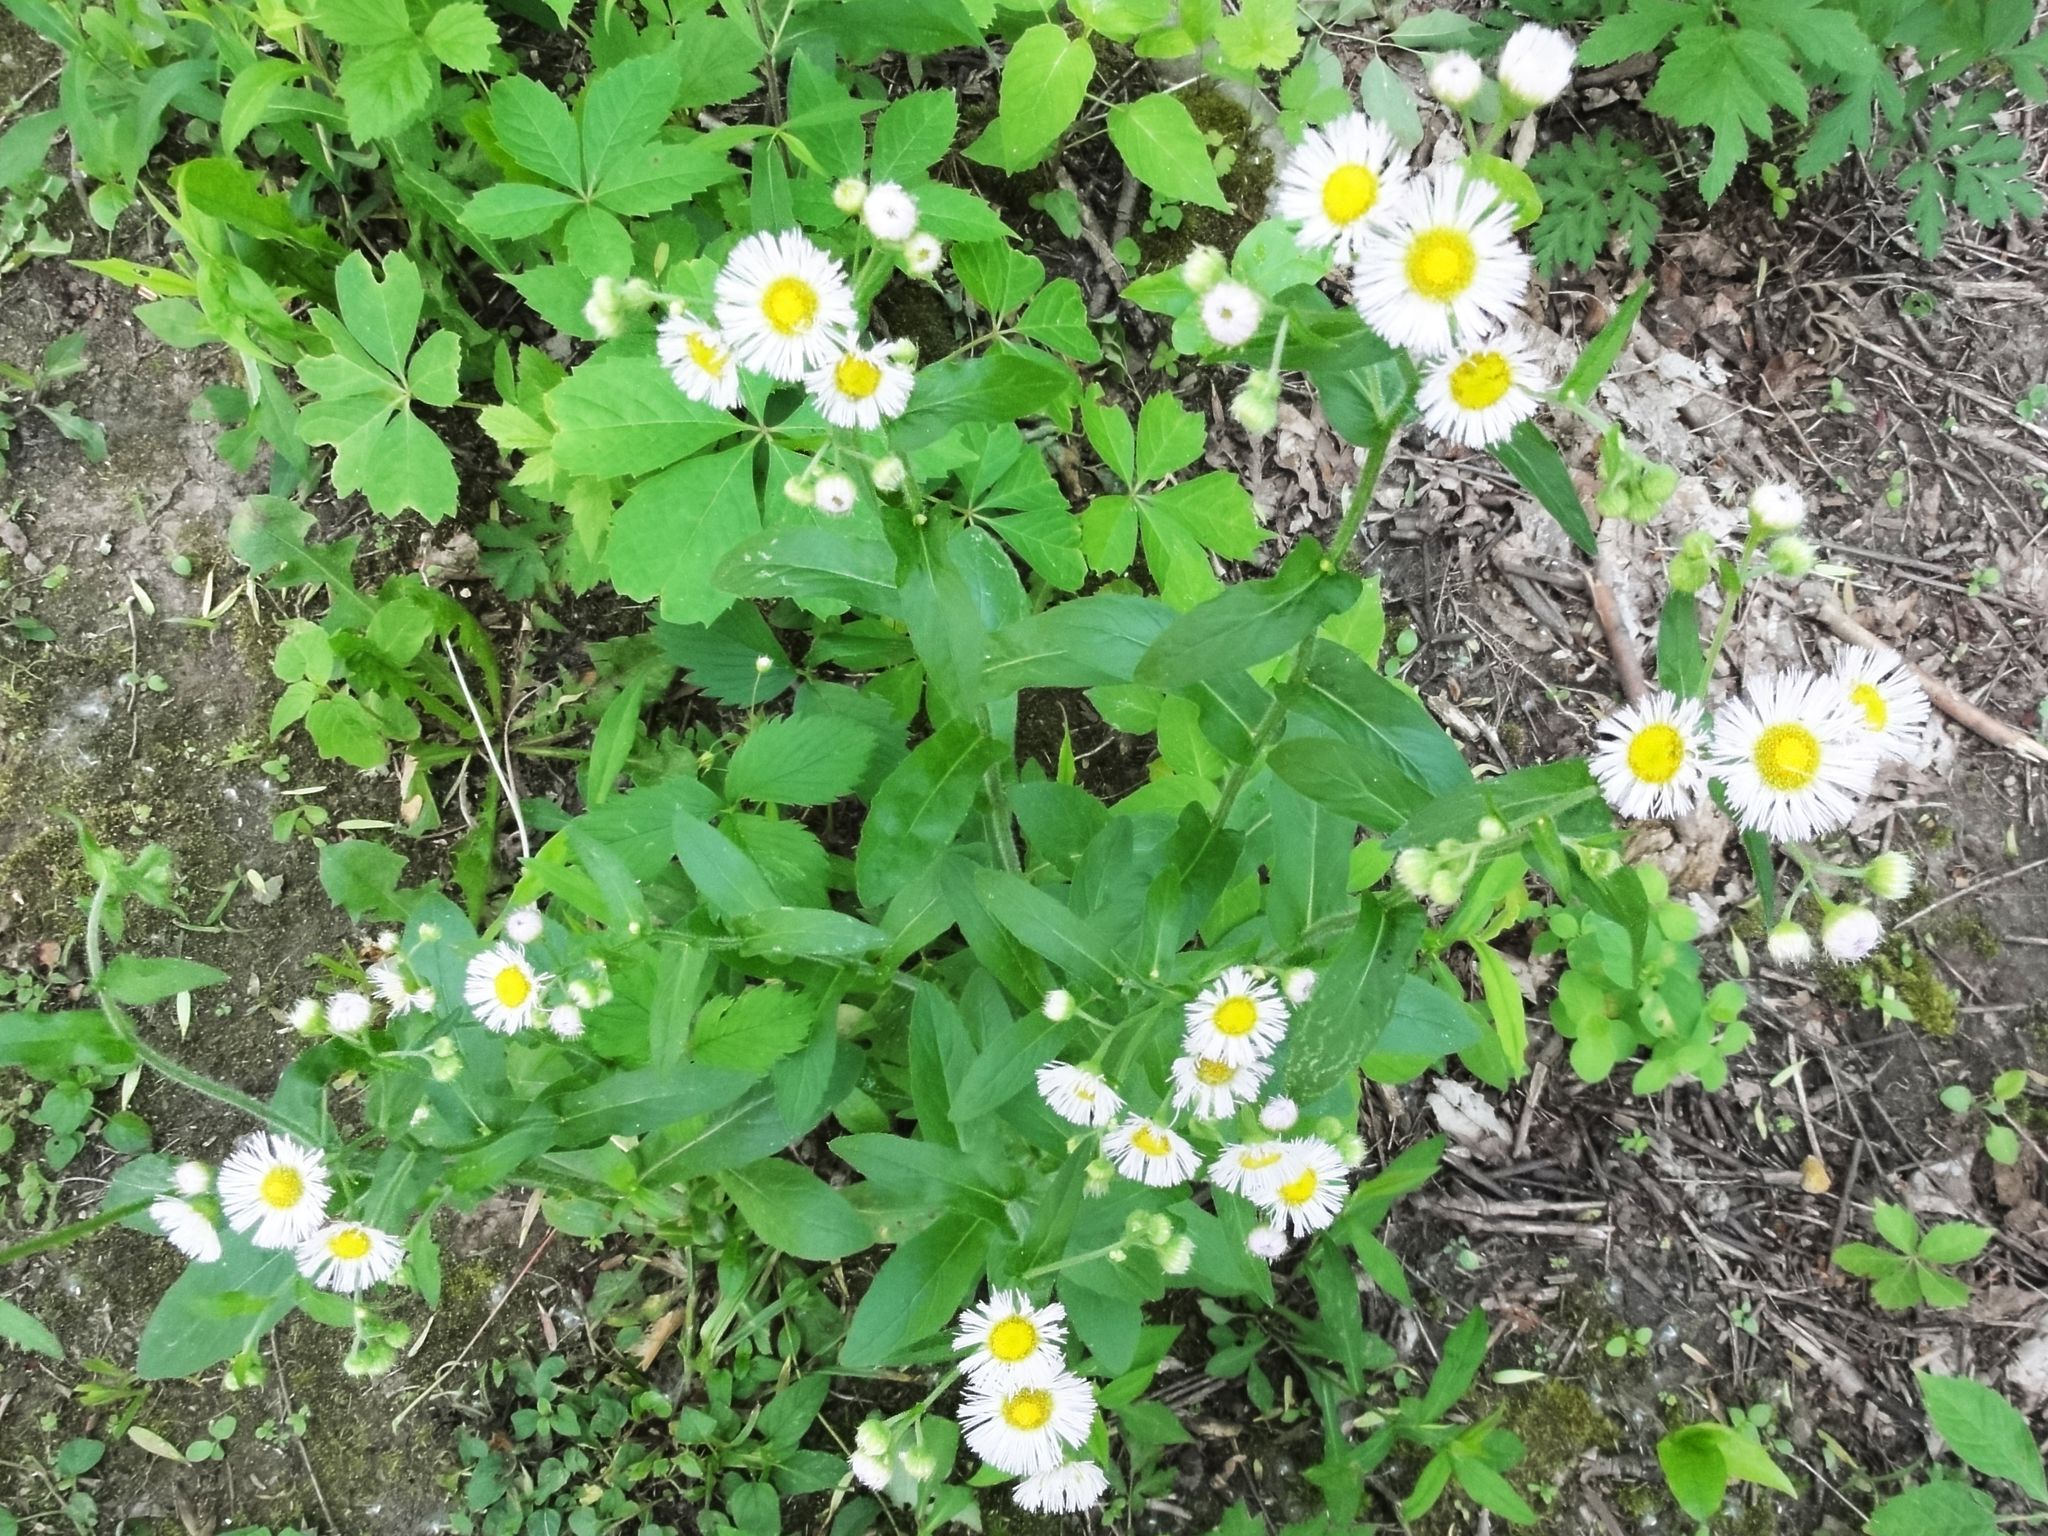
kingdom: Plantae
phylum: Tracheophyta
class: Magnoliopsida
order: Asterales
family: Asteraceae
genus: Erigeron
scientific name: Erigeron philadelphicus
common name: Robin's-plantain
